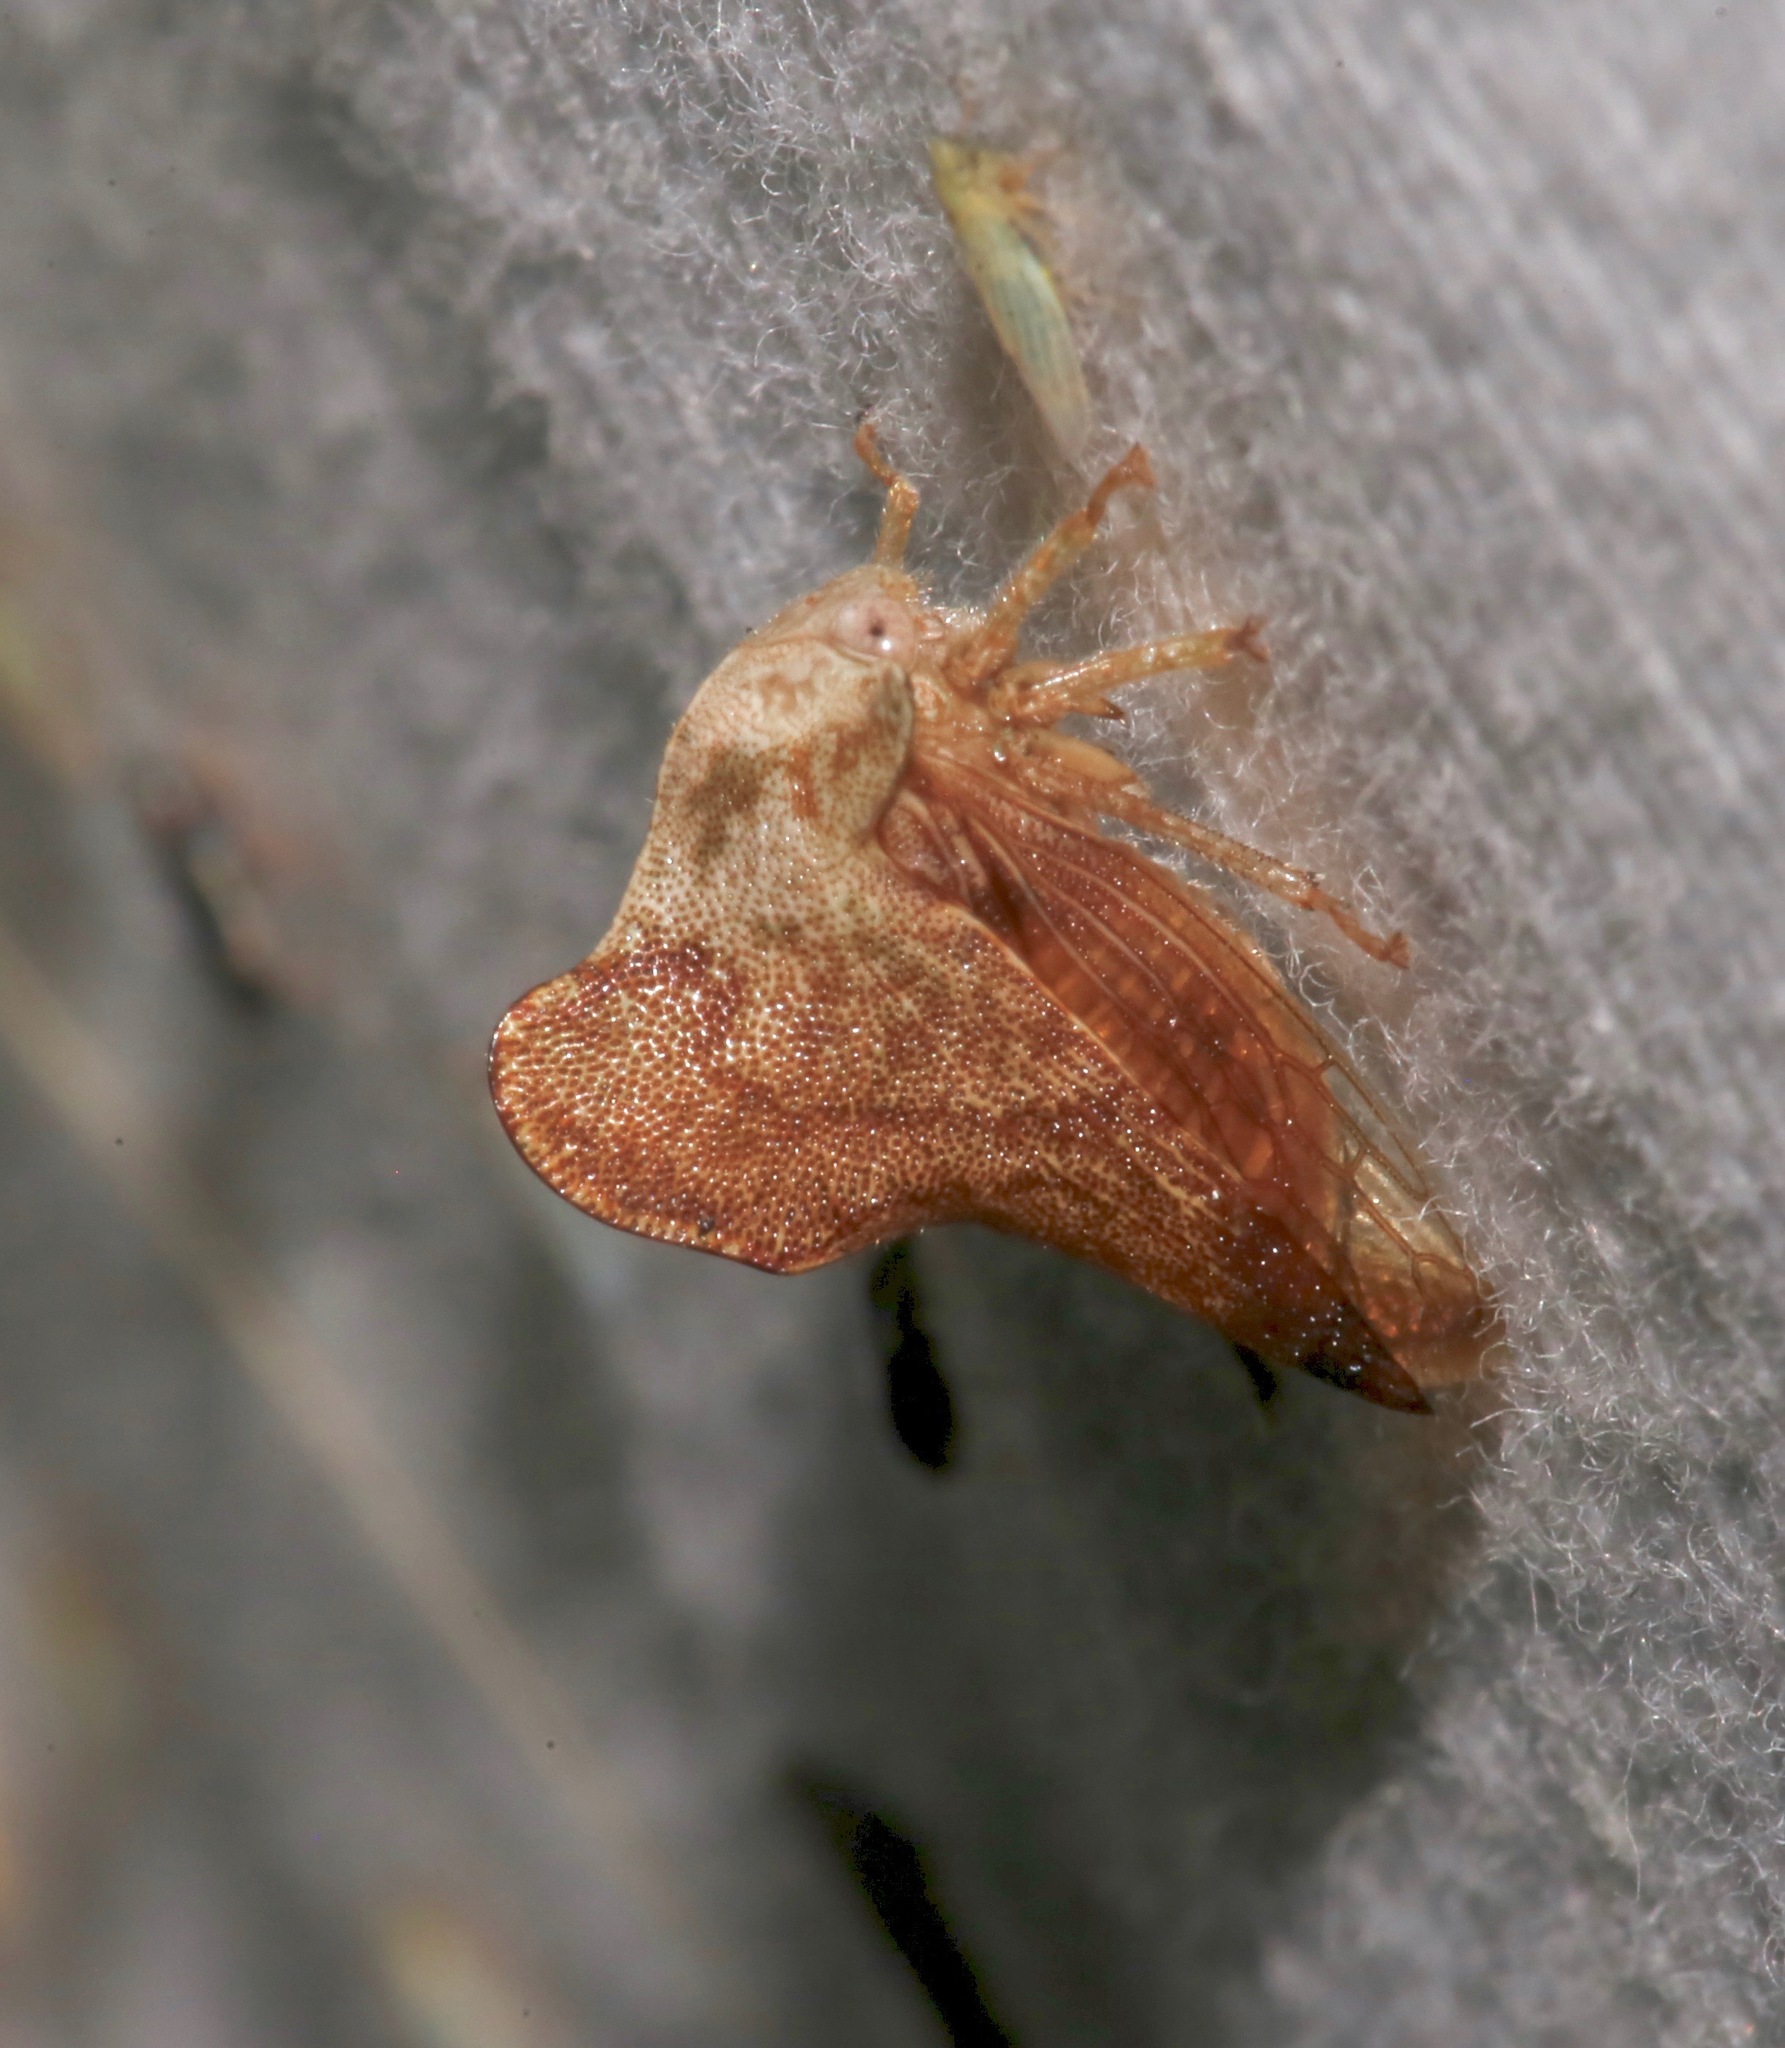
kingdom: Animalia
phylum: Arthropoda
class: Insecta
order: Hemiptera
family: Membracidae
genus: Telamona
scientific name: Telamona collina
